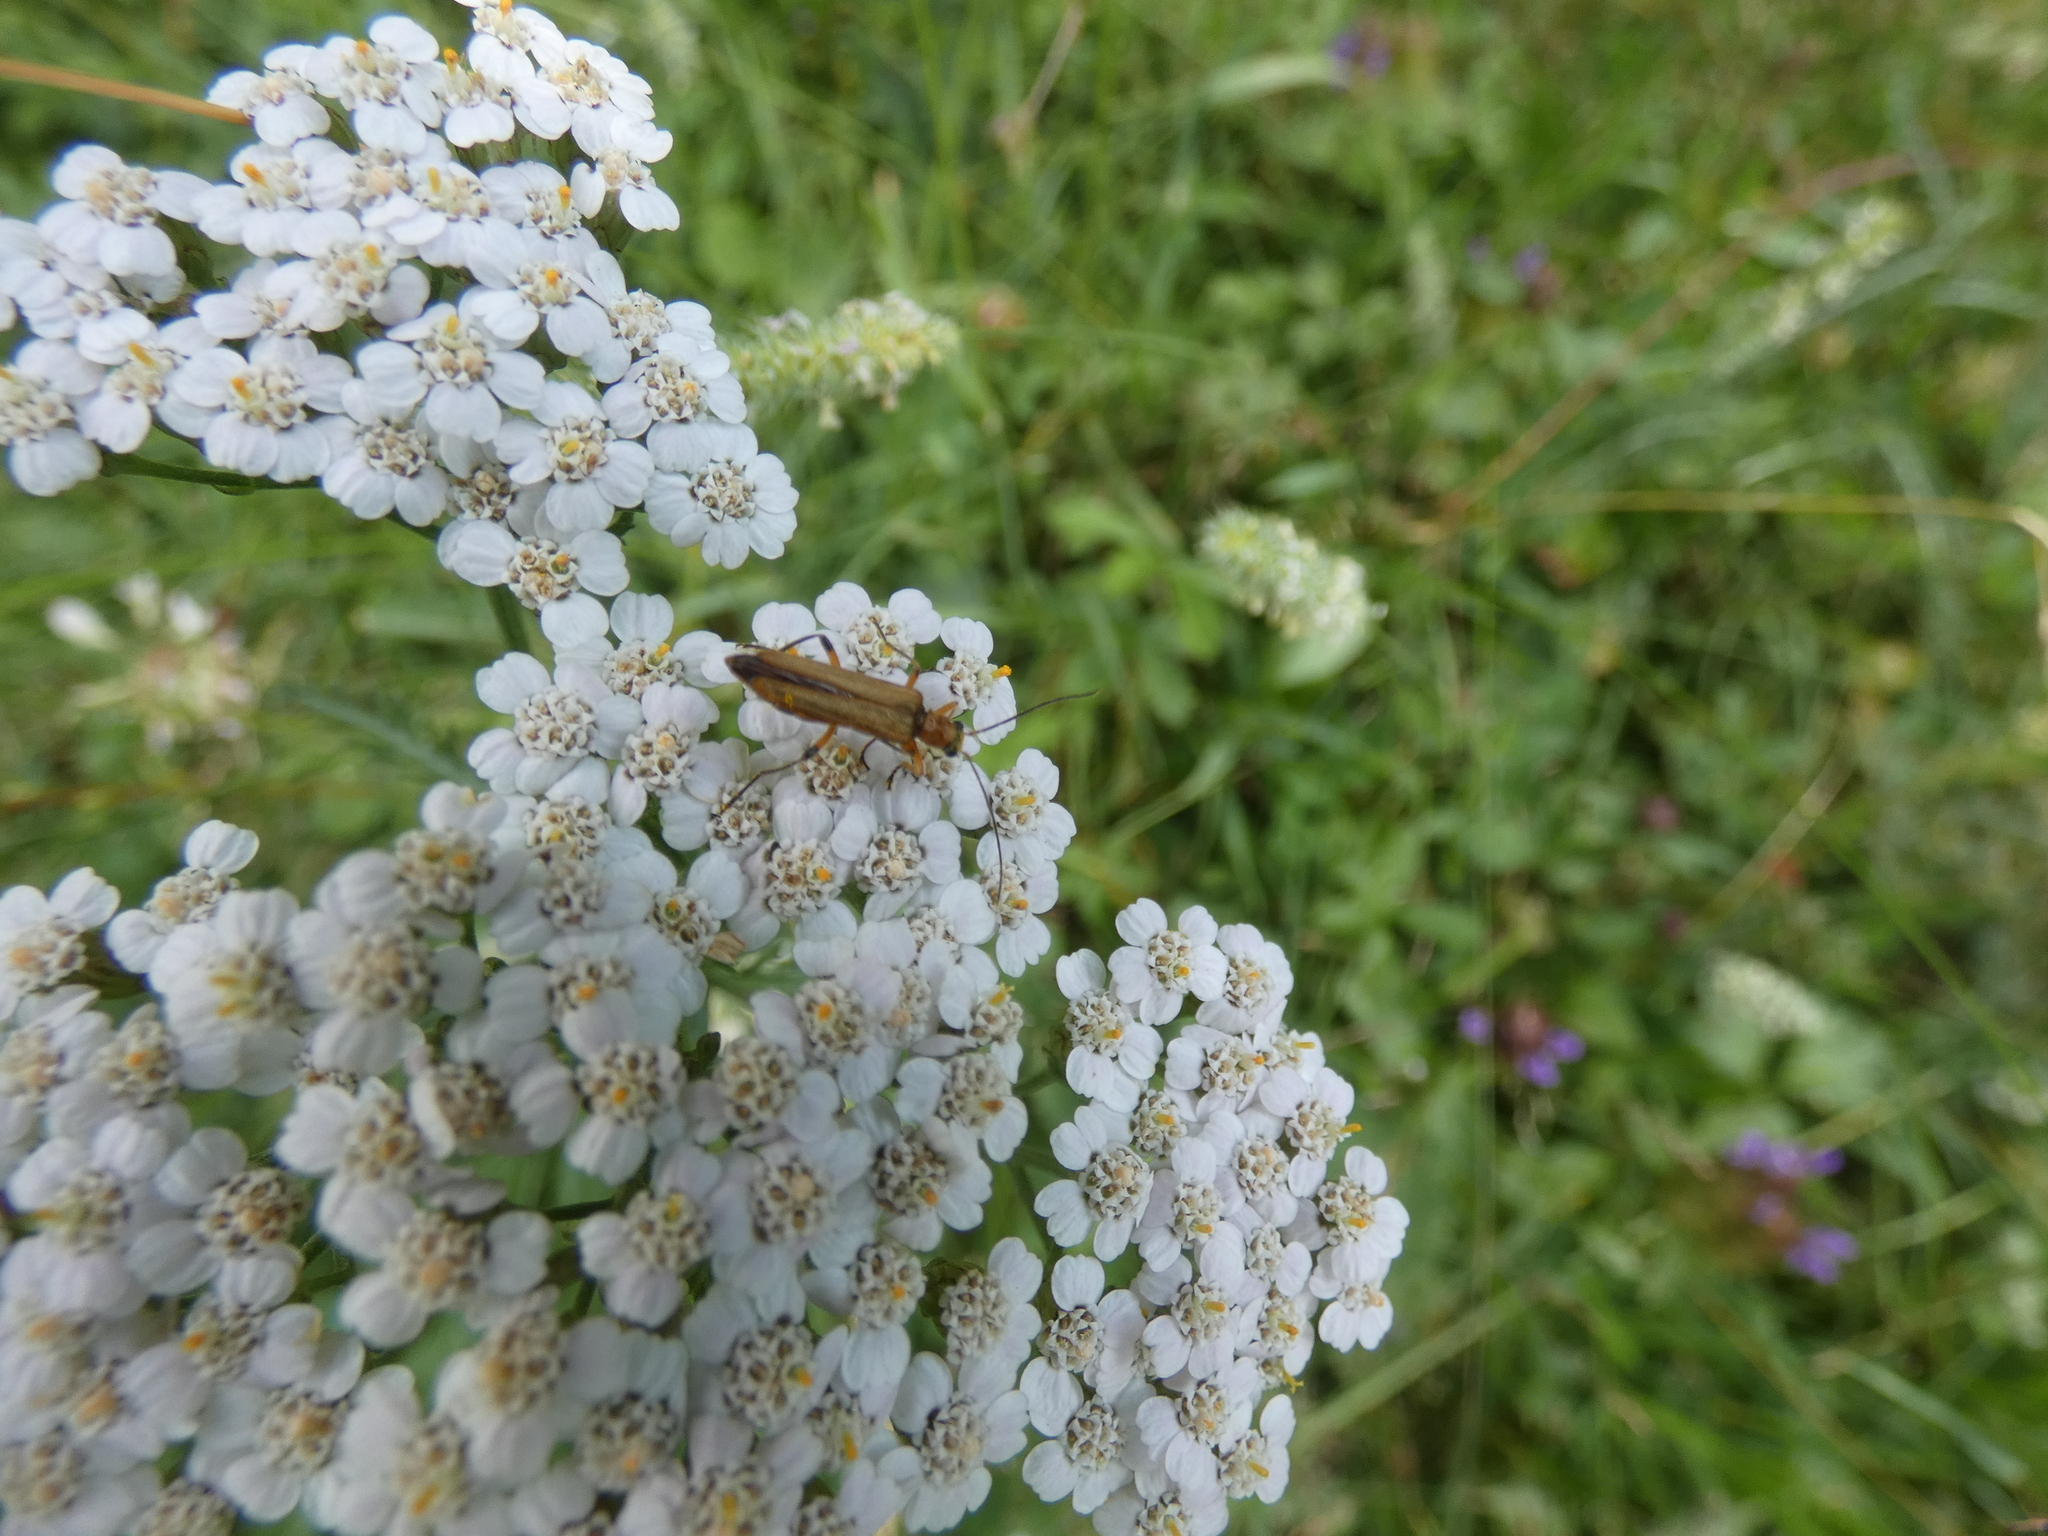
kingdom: Animalia
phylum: Arthropoda
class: Insecta
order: Coleoptera
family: Oedemeridae
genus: Oedemera
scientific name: Oedemera podagrariae
